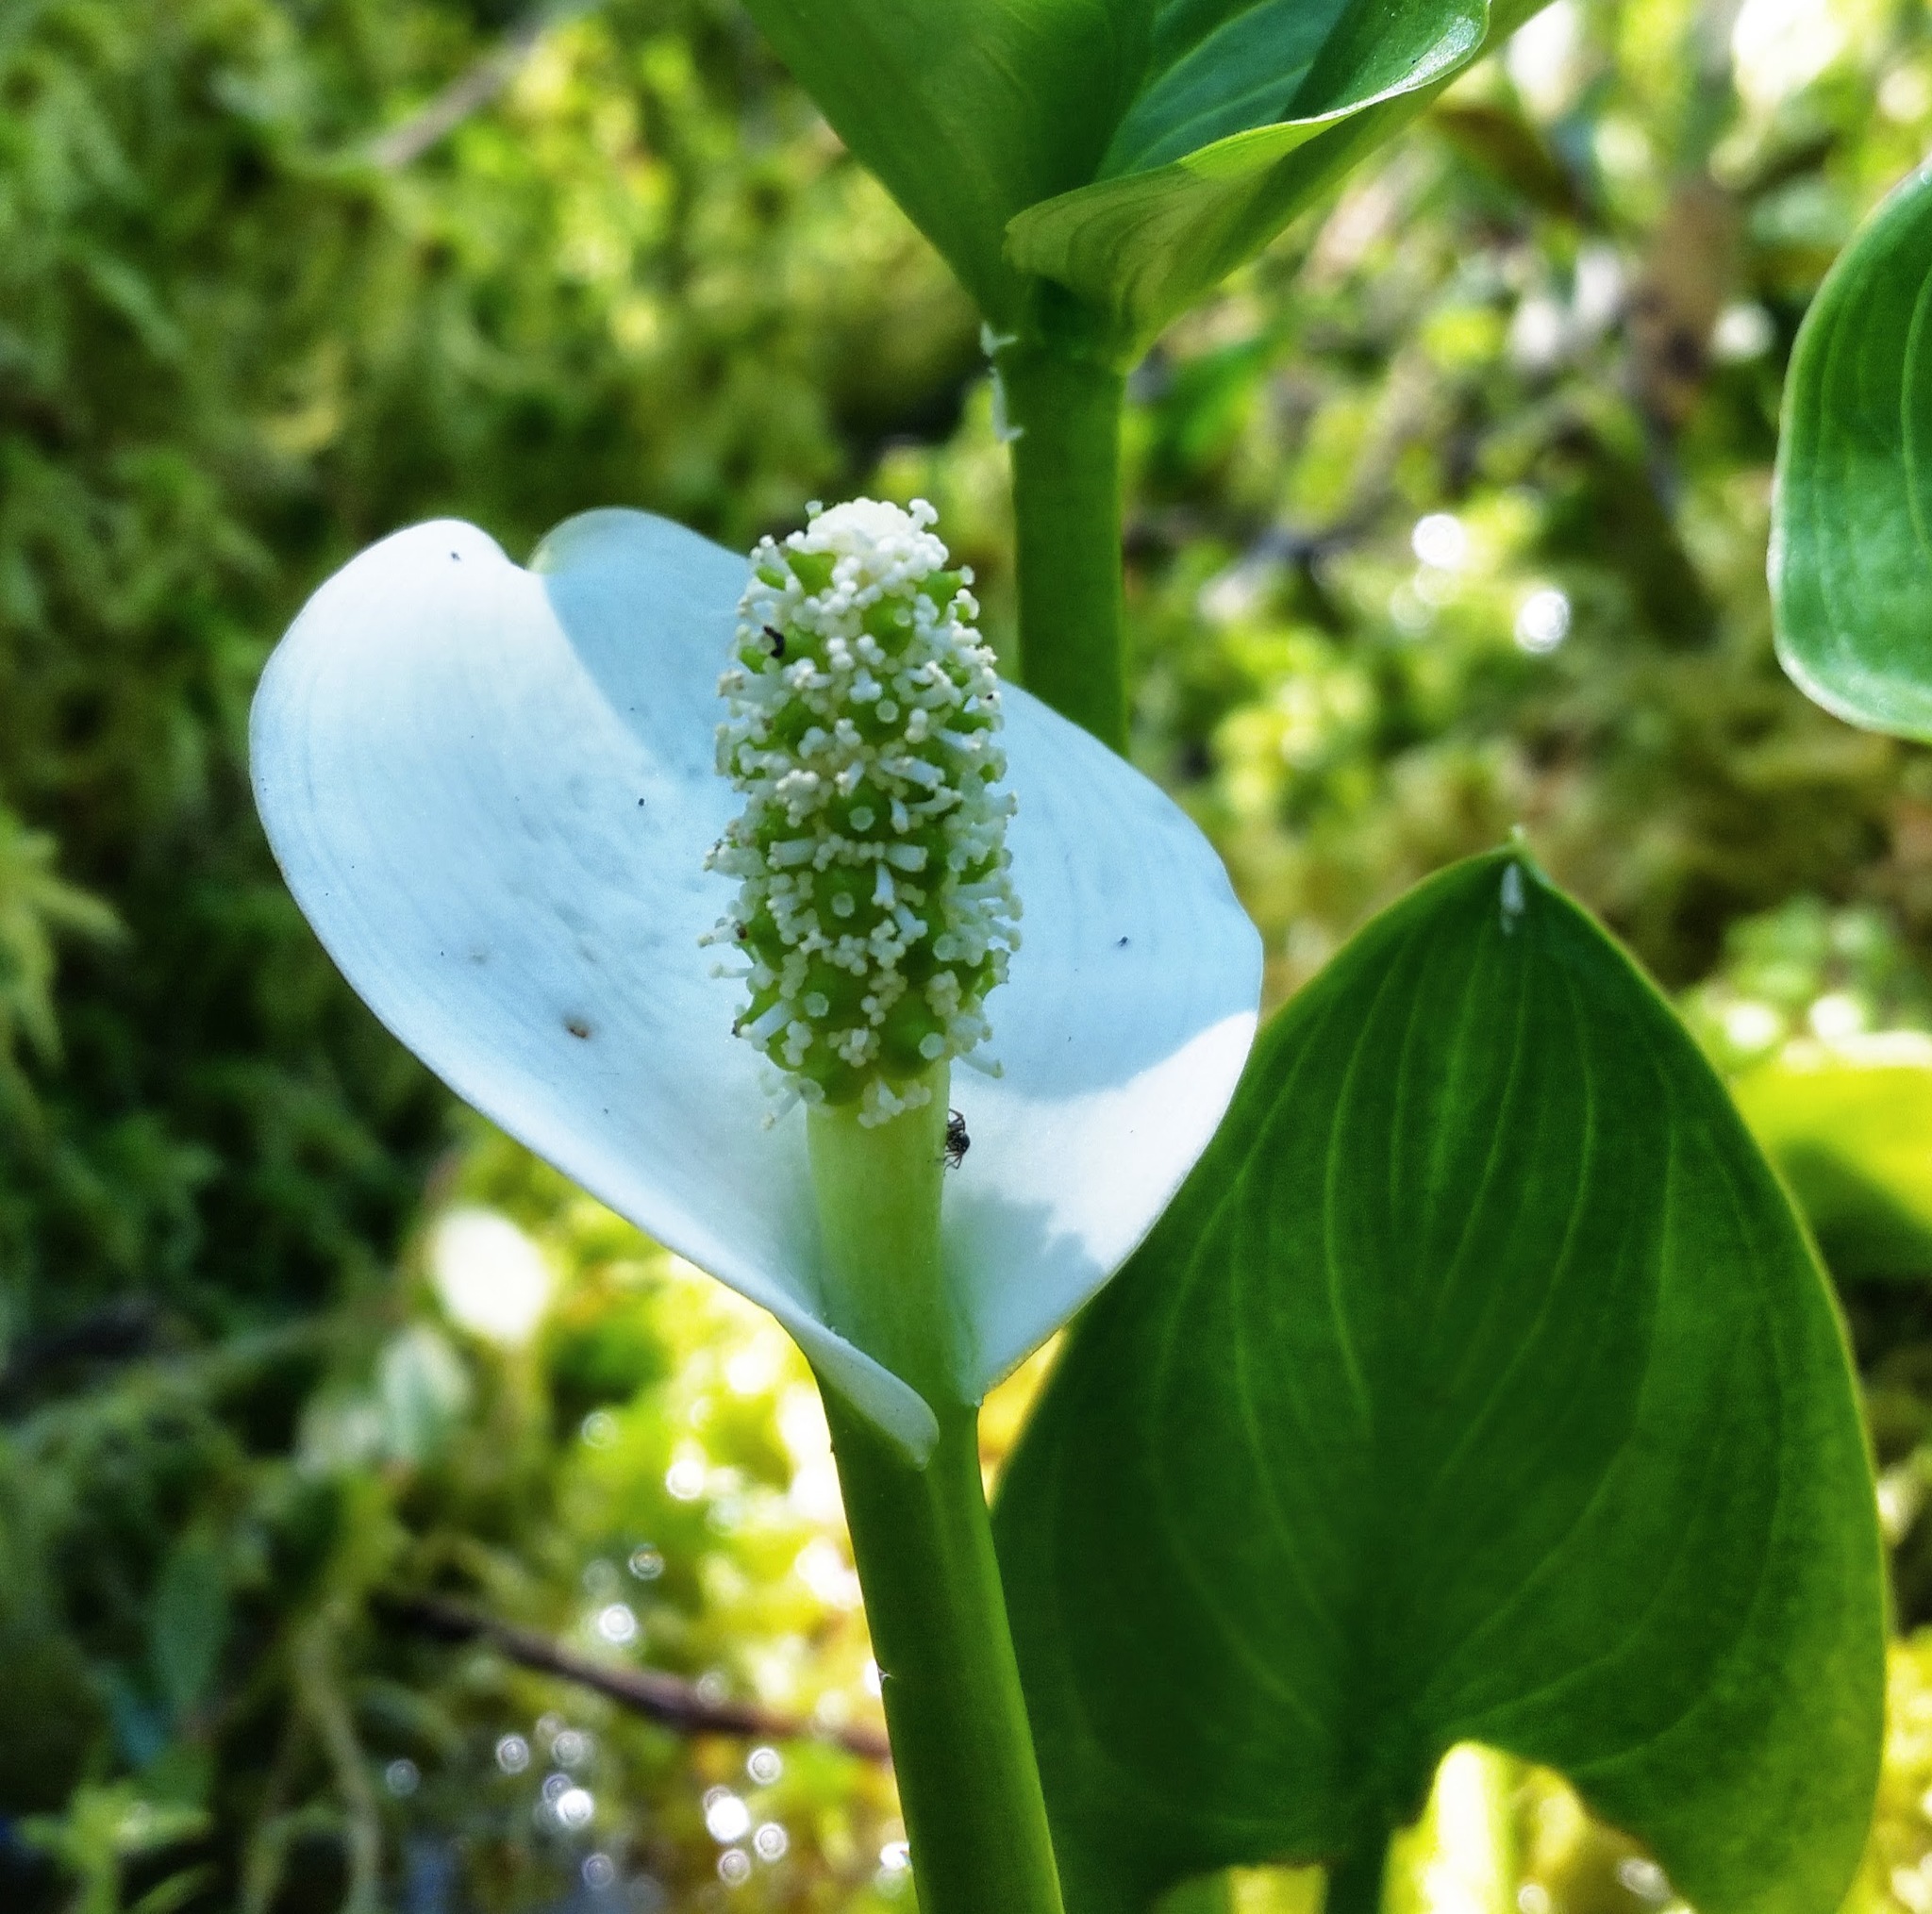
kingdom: Plantae
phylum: Tracheophyta
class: Liliopsida
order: Alismatales
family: Araceae
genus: Calla
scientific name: Calla palustris
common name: Bog arum
